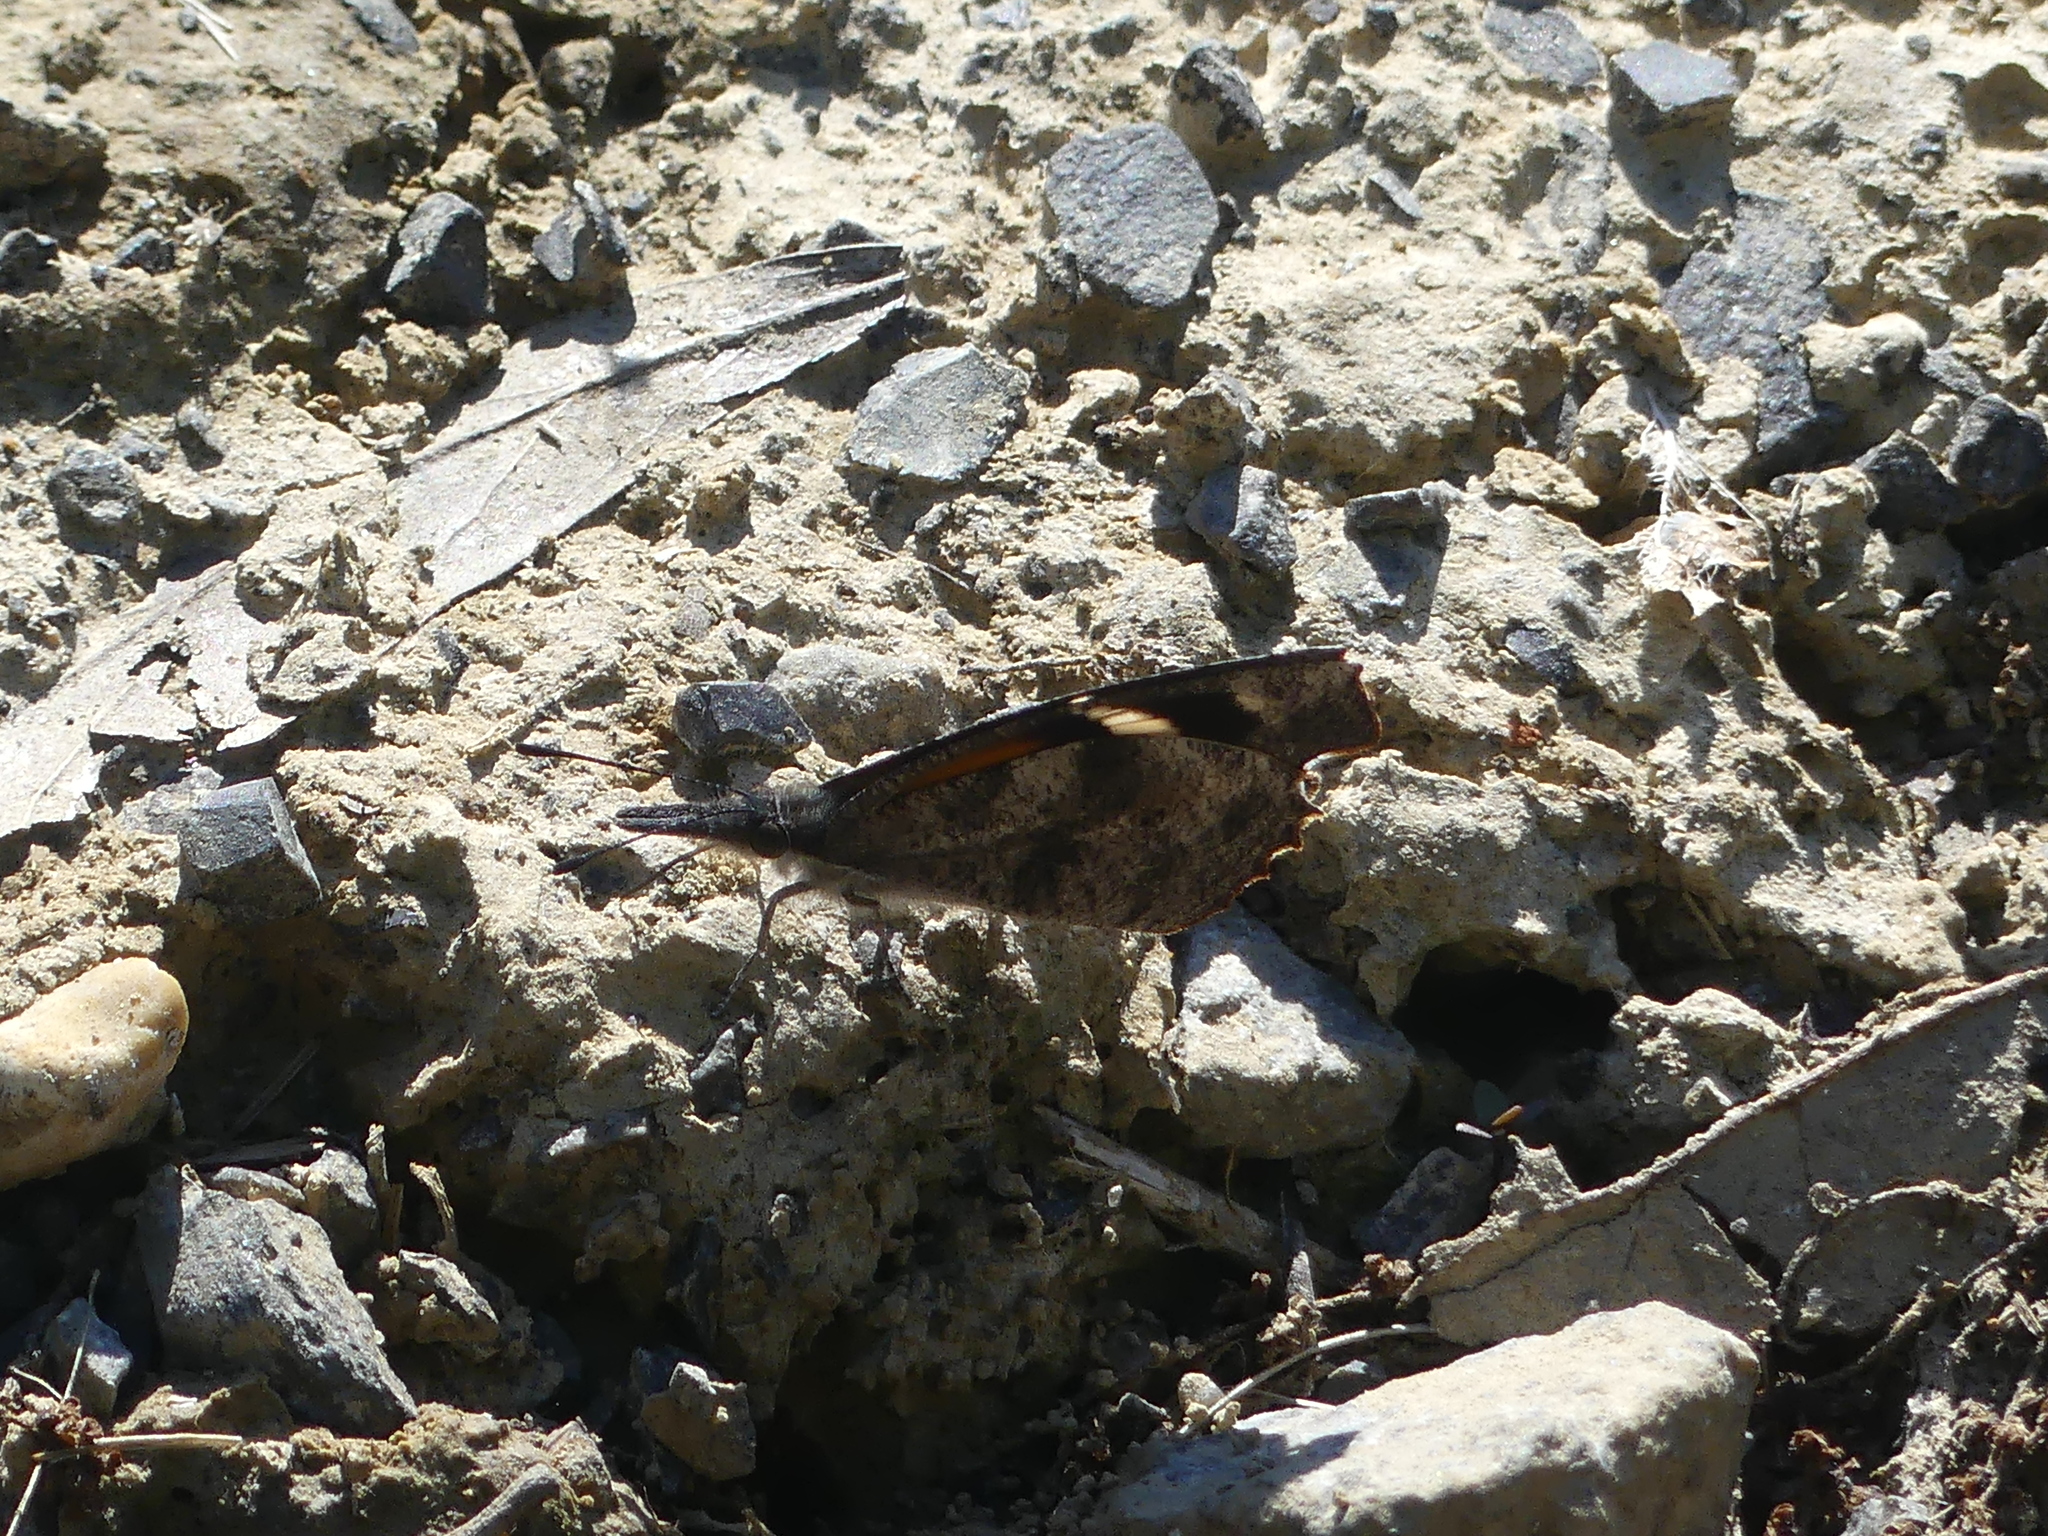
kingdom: Animalia
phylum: Arthropoda
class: Insecta
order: Lepidoptera
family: Nymphalidae
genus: Libytheana
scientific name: Libytheana carinenta
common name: American snout
